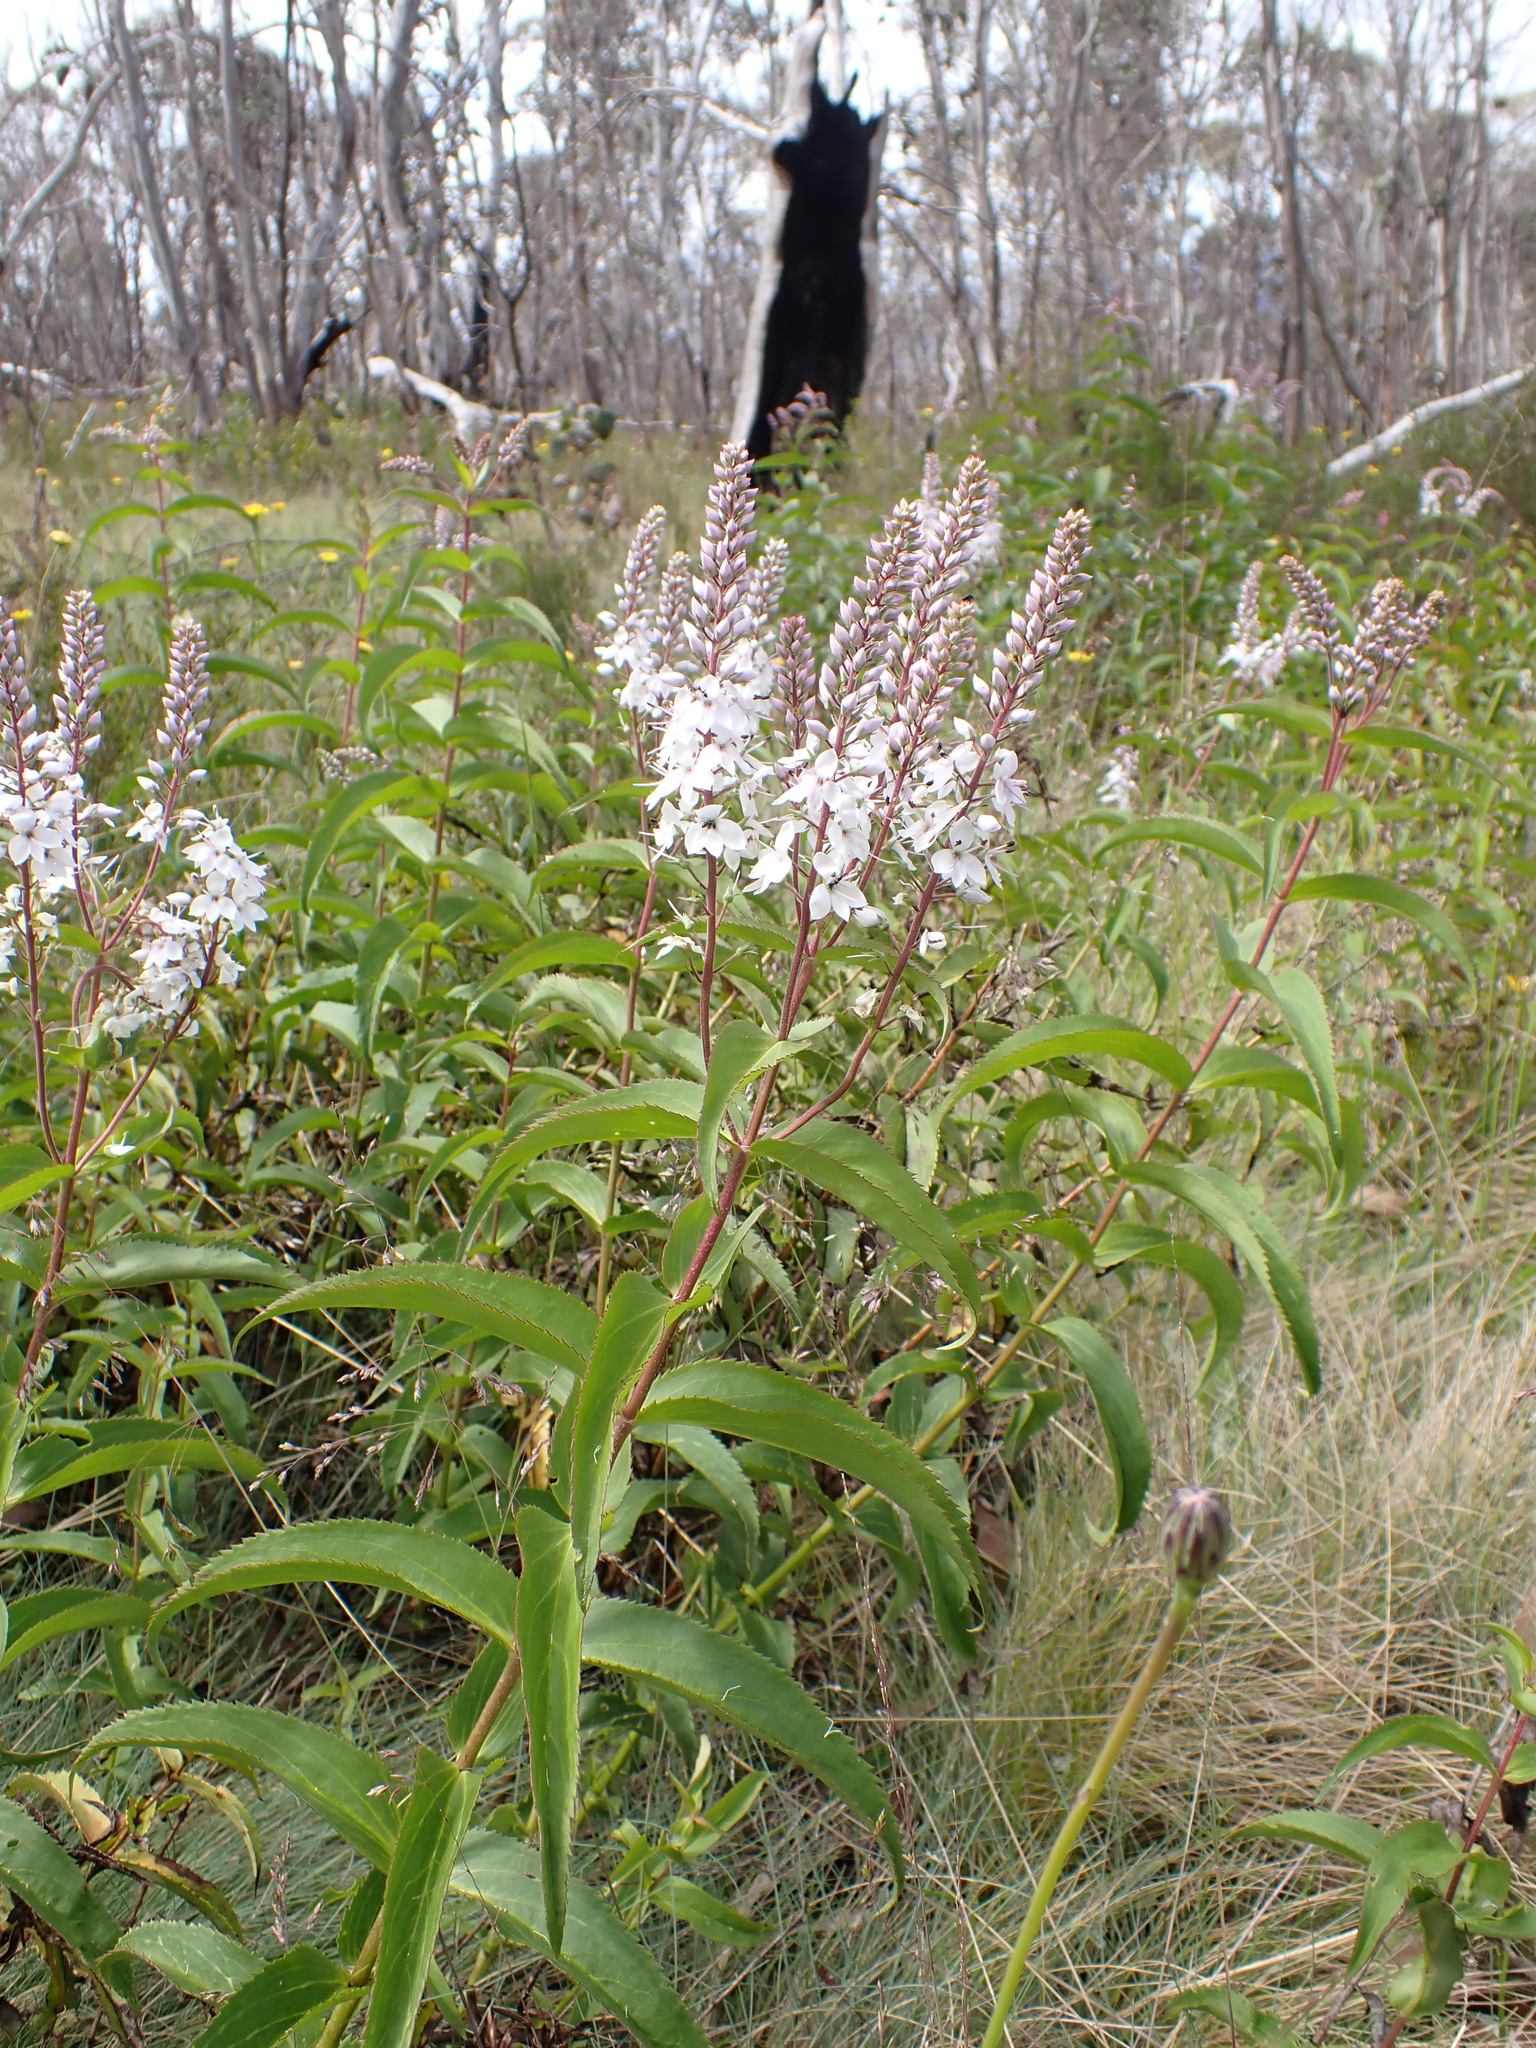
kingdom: Plantae
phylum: Tracheophyta
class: Magnoliopsida
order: Lamiales
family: Plantaginaceae
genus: Veronica
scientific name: Veronica derwentiana
